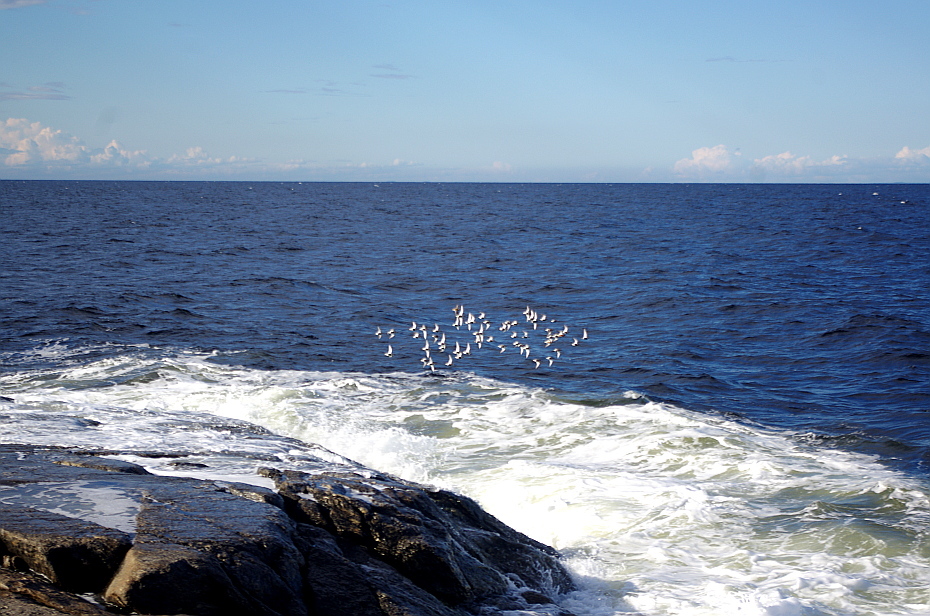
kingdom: Animalia
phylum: Chordata
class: Aves
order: Charadriiformes
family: Scolopacidae
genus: Calidris
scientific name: Calidris alpina
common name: Dunlin
